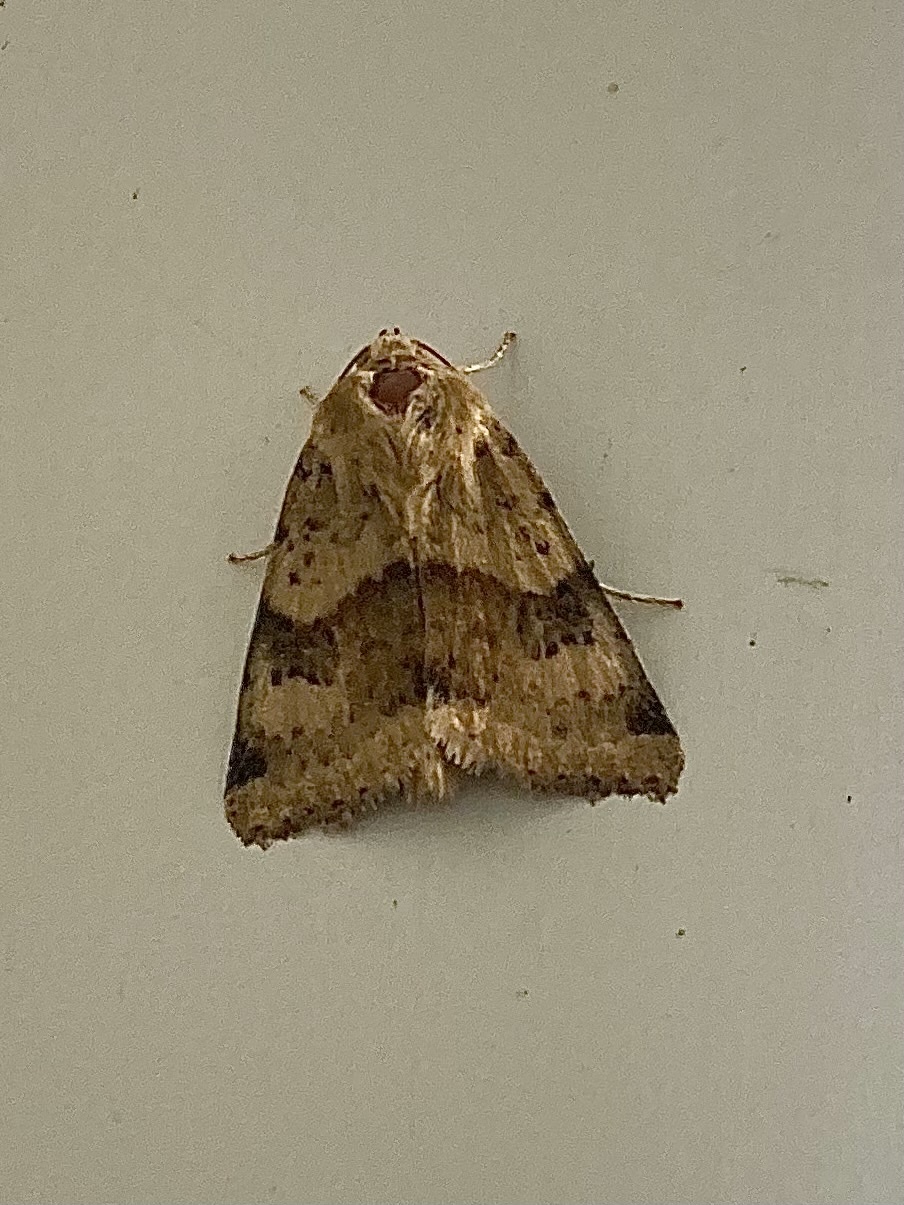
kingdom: Animalia
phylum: Arthropoda
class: Insecta
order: Lepidoptera
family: Noctuidae
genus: Heliothis
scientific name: Heliothis viriplaca
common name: Marbled clover
